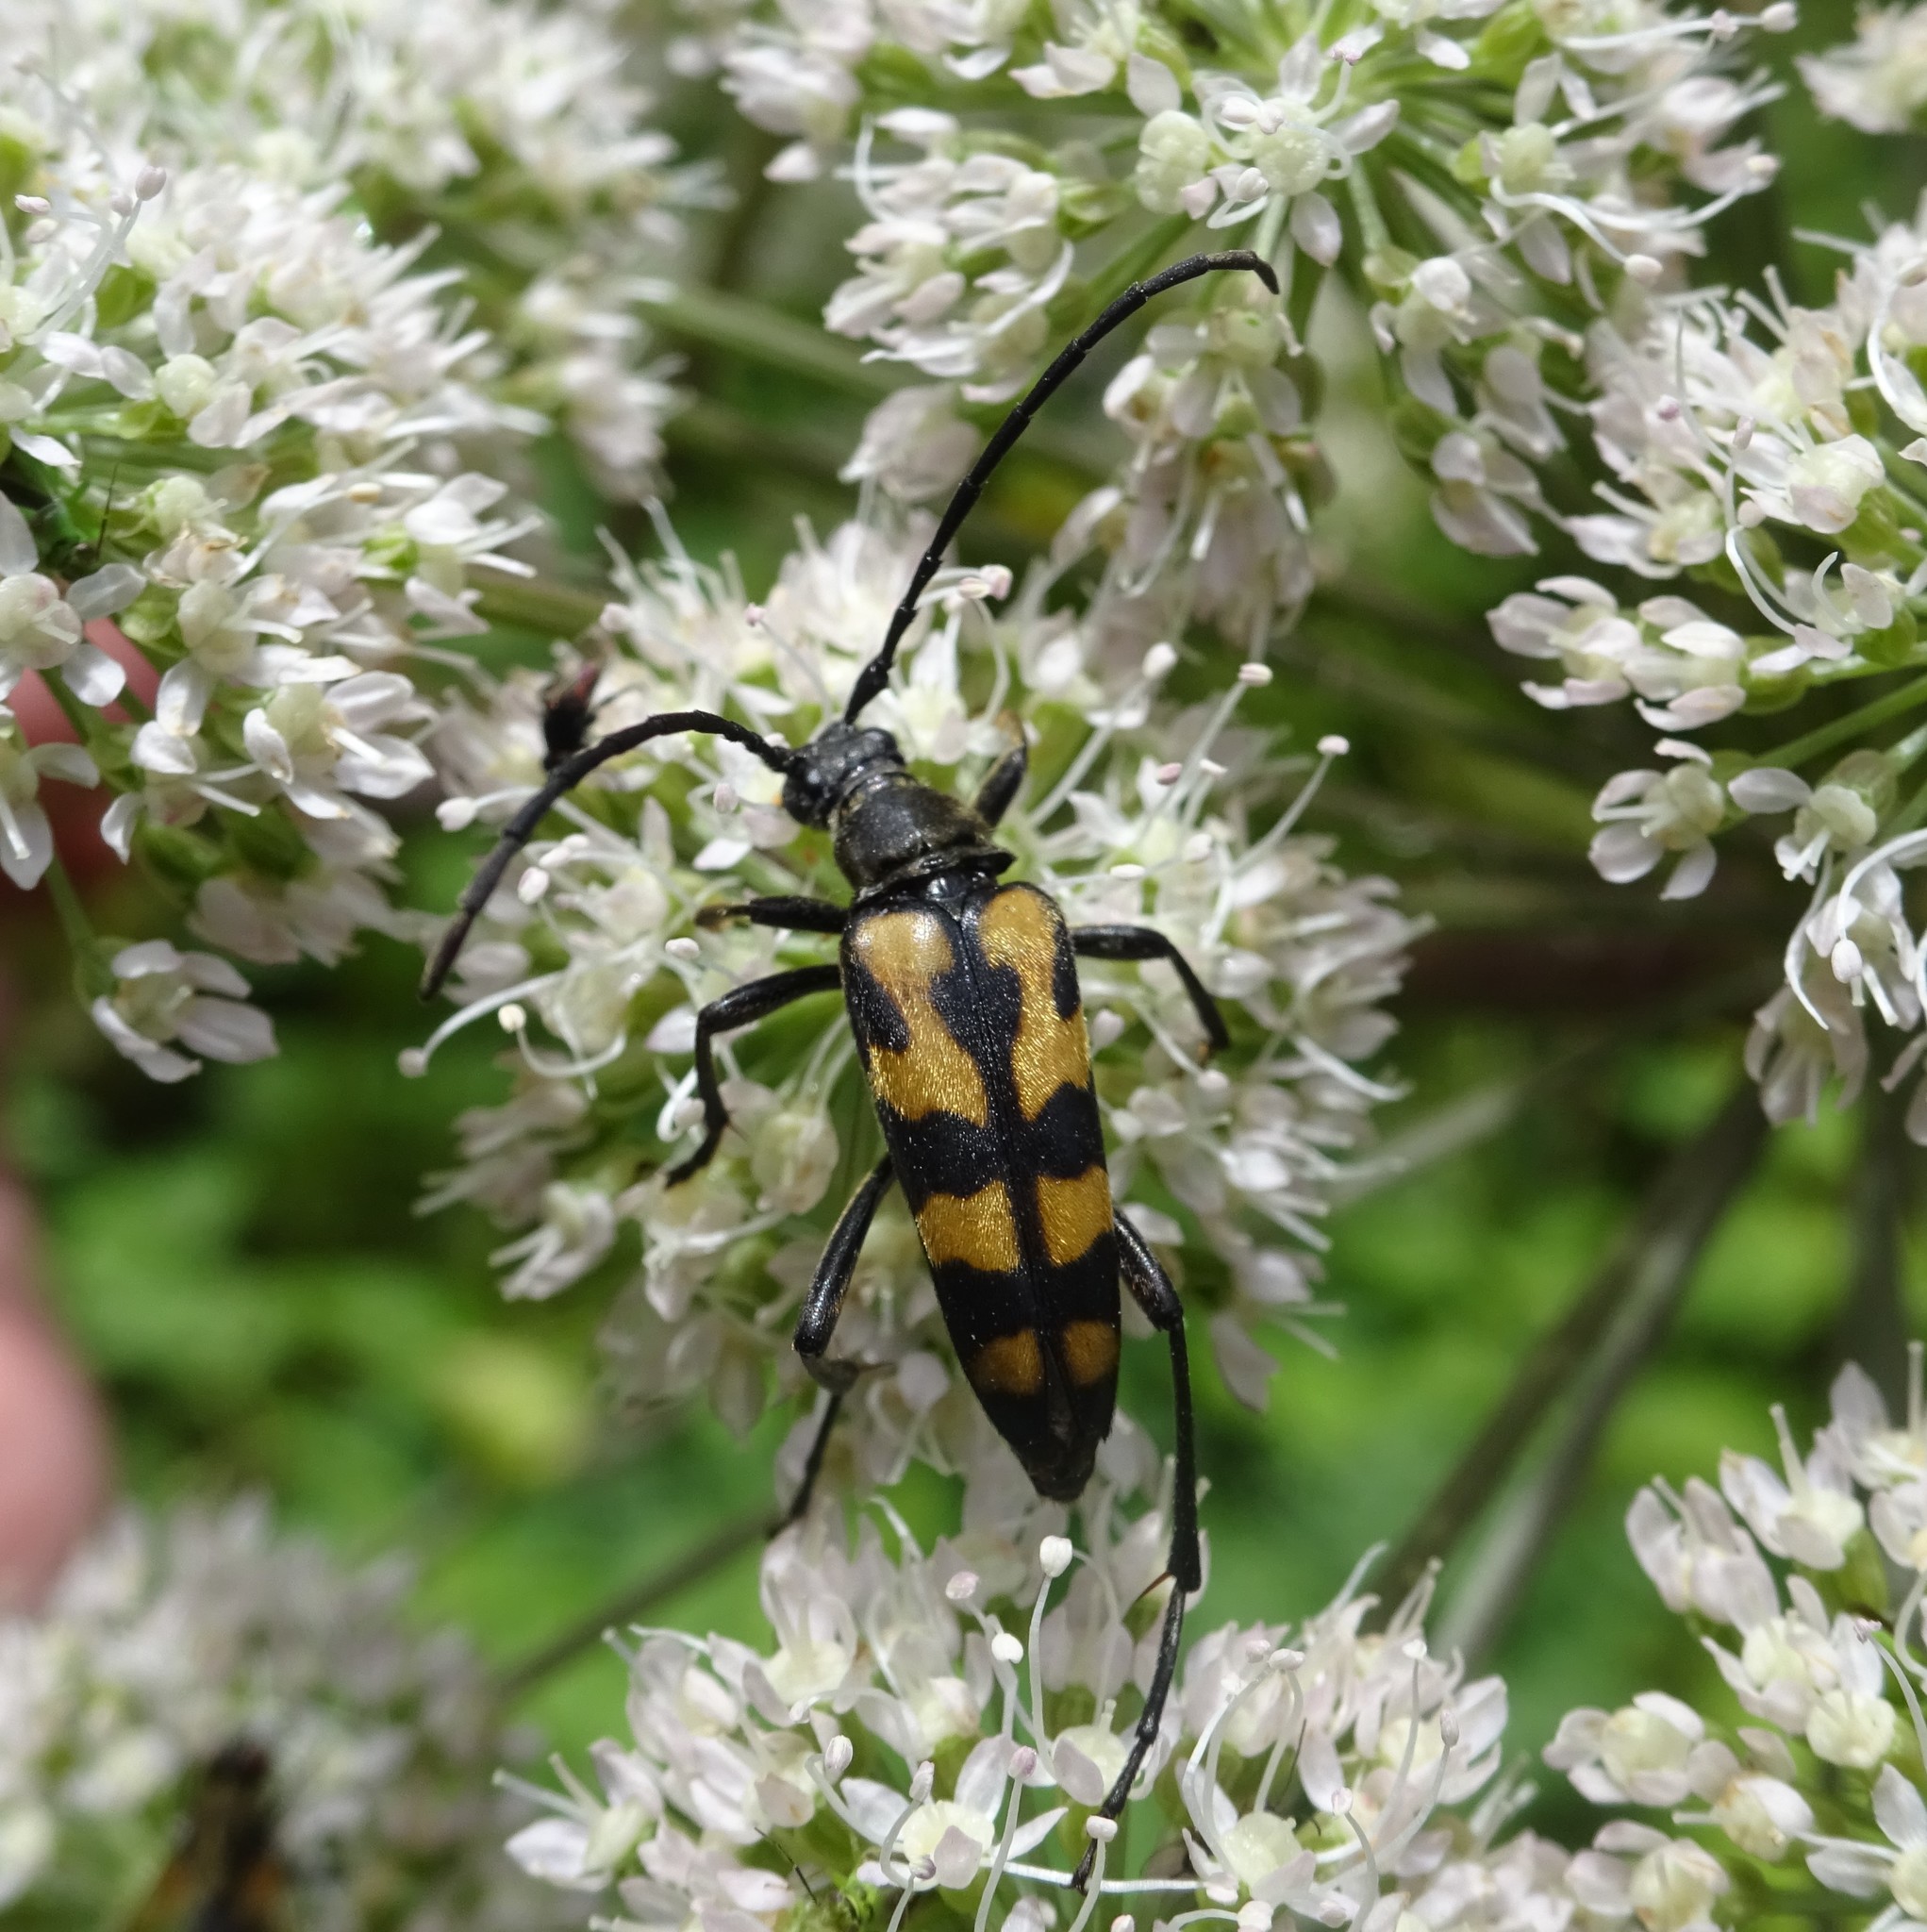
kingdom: Animalia
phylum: Arthropoda
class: Insecta
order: Coleoptera
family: Cerambycidae
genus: Leptura
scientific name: Leptura quadrifasciata
